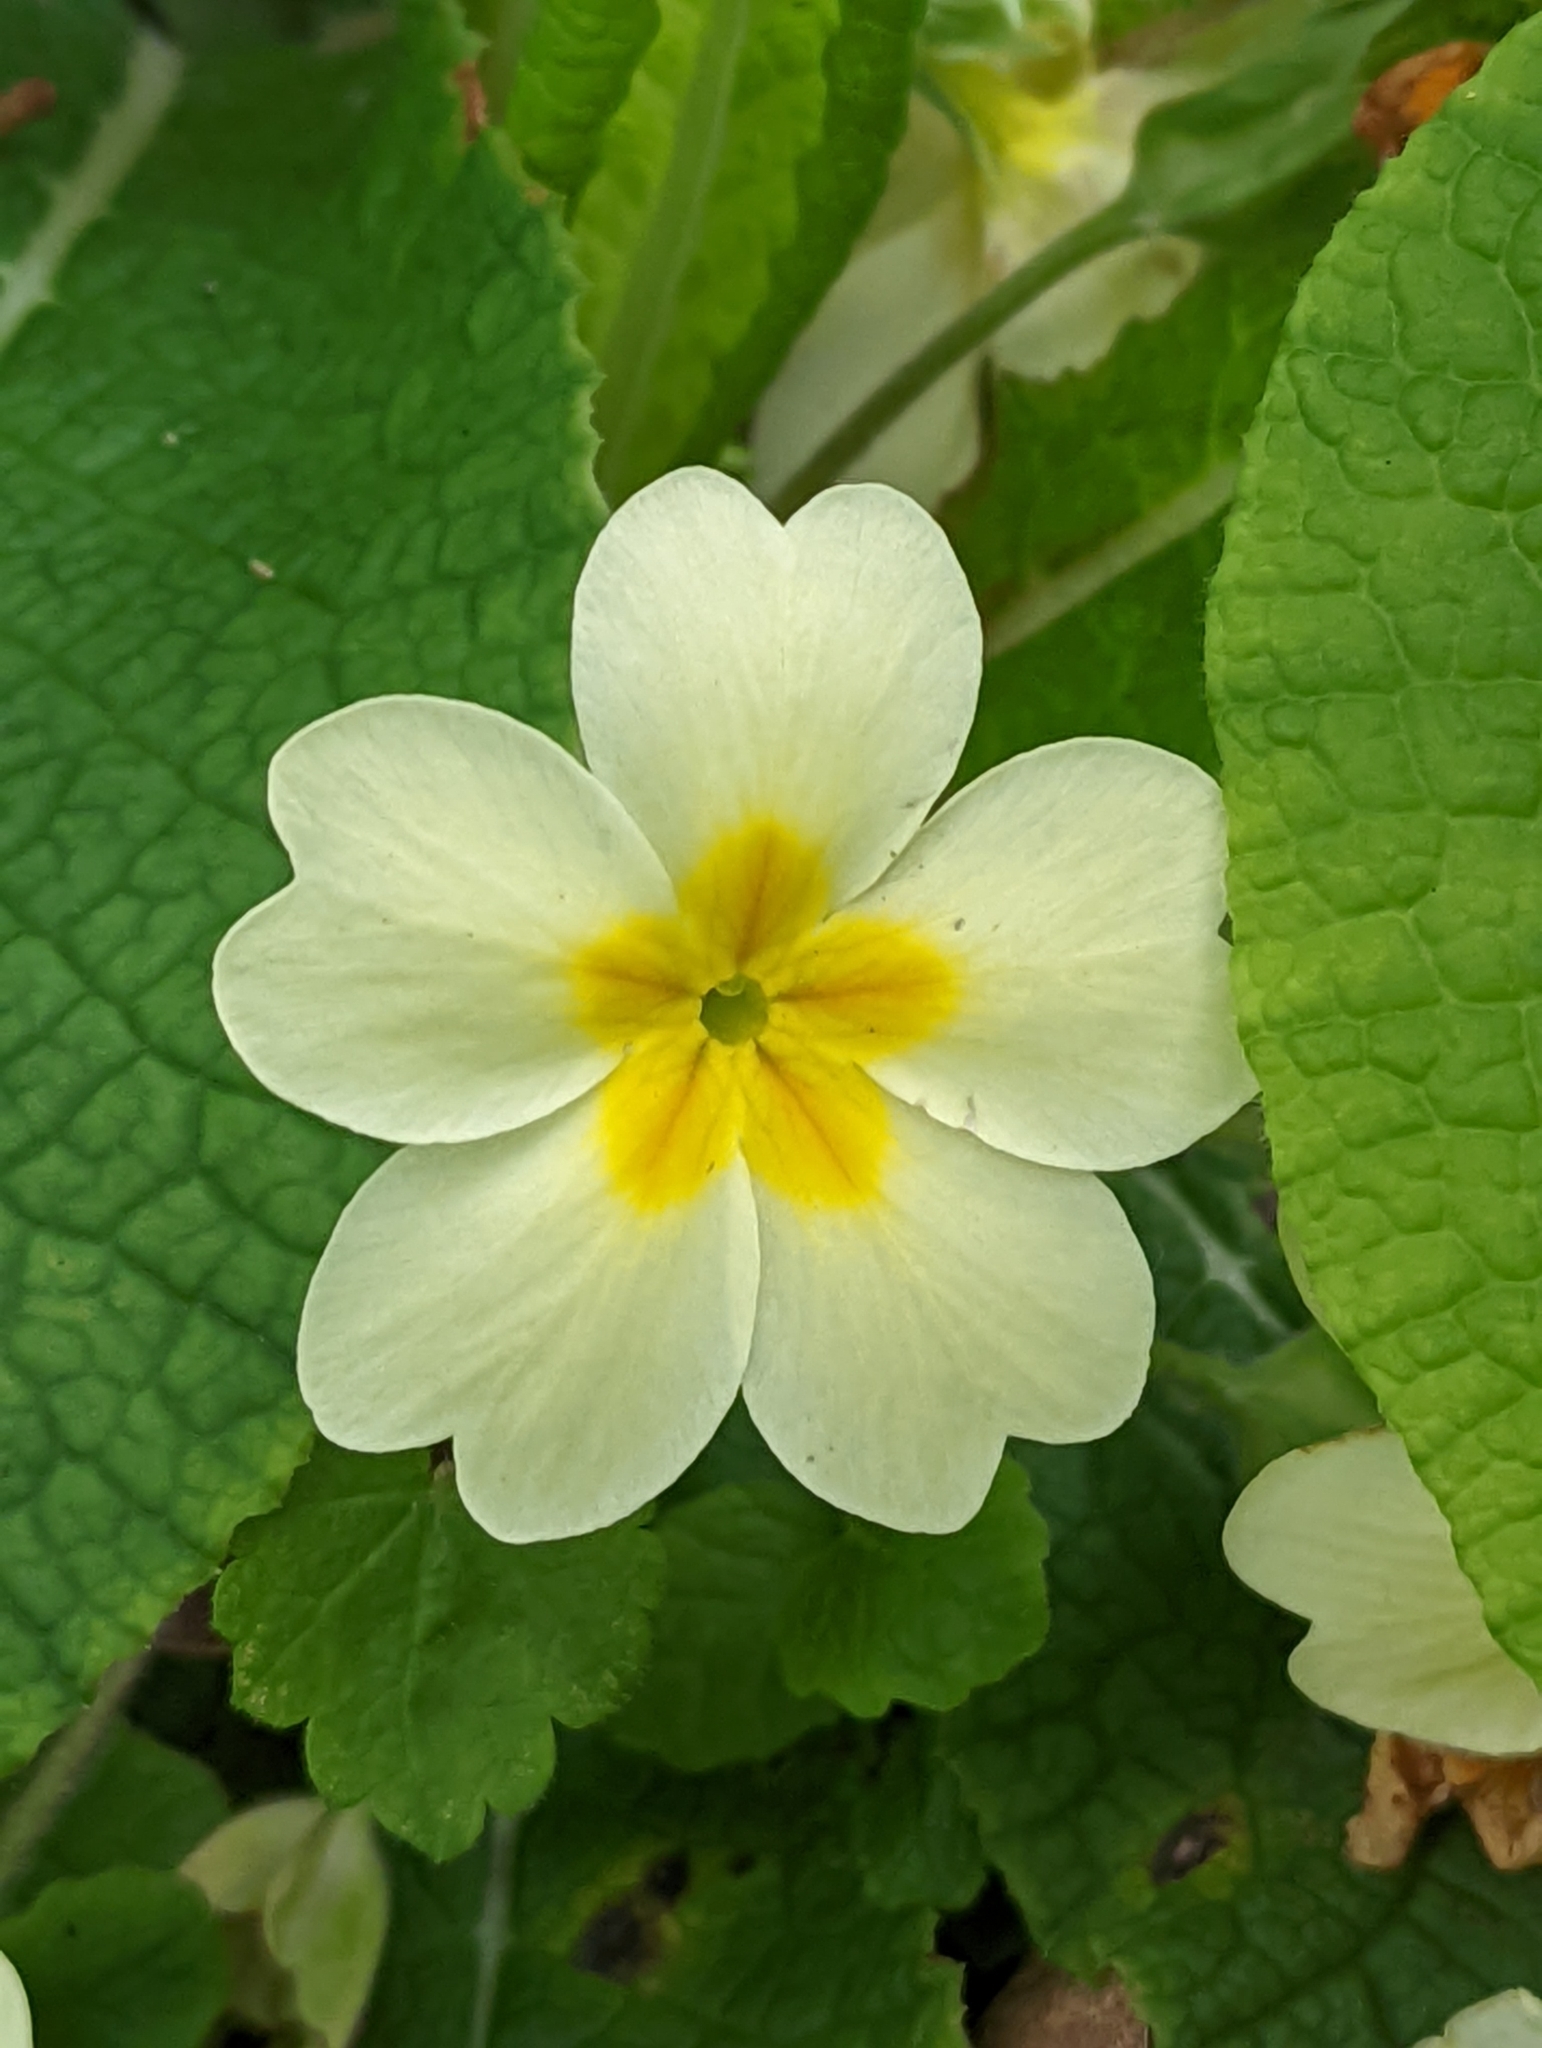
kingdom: Plantae
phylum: Tracheophyta
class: Magnoliopsida
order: Ericales
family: Primulaceae
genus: Primula
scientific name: Primula vulgaris
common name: Primrose
